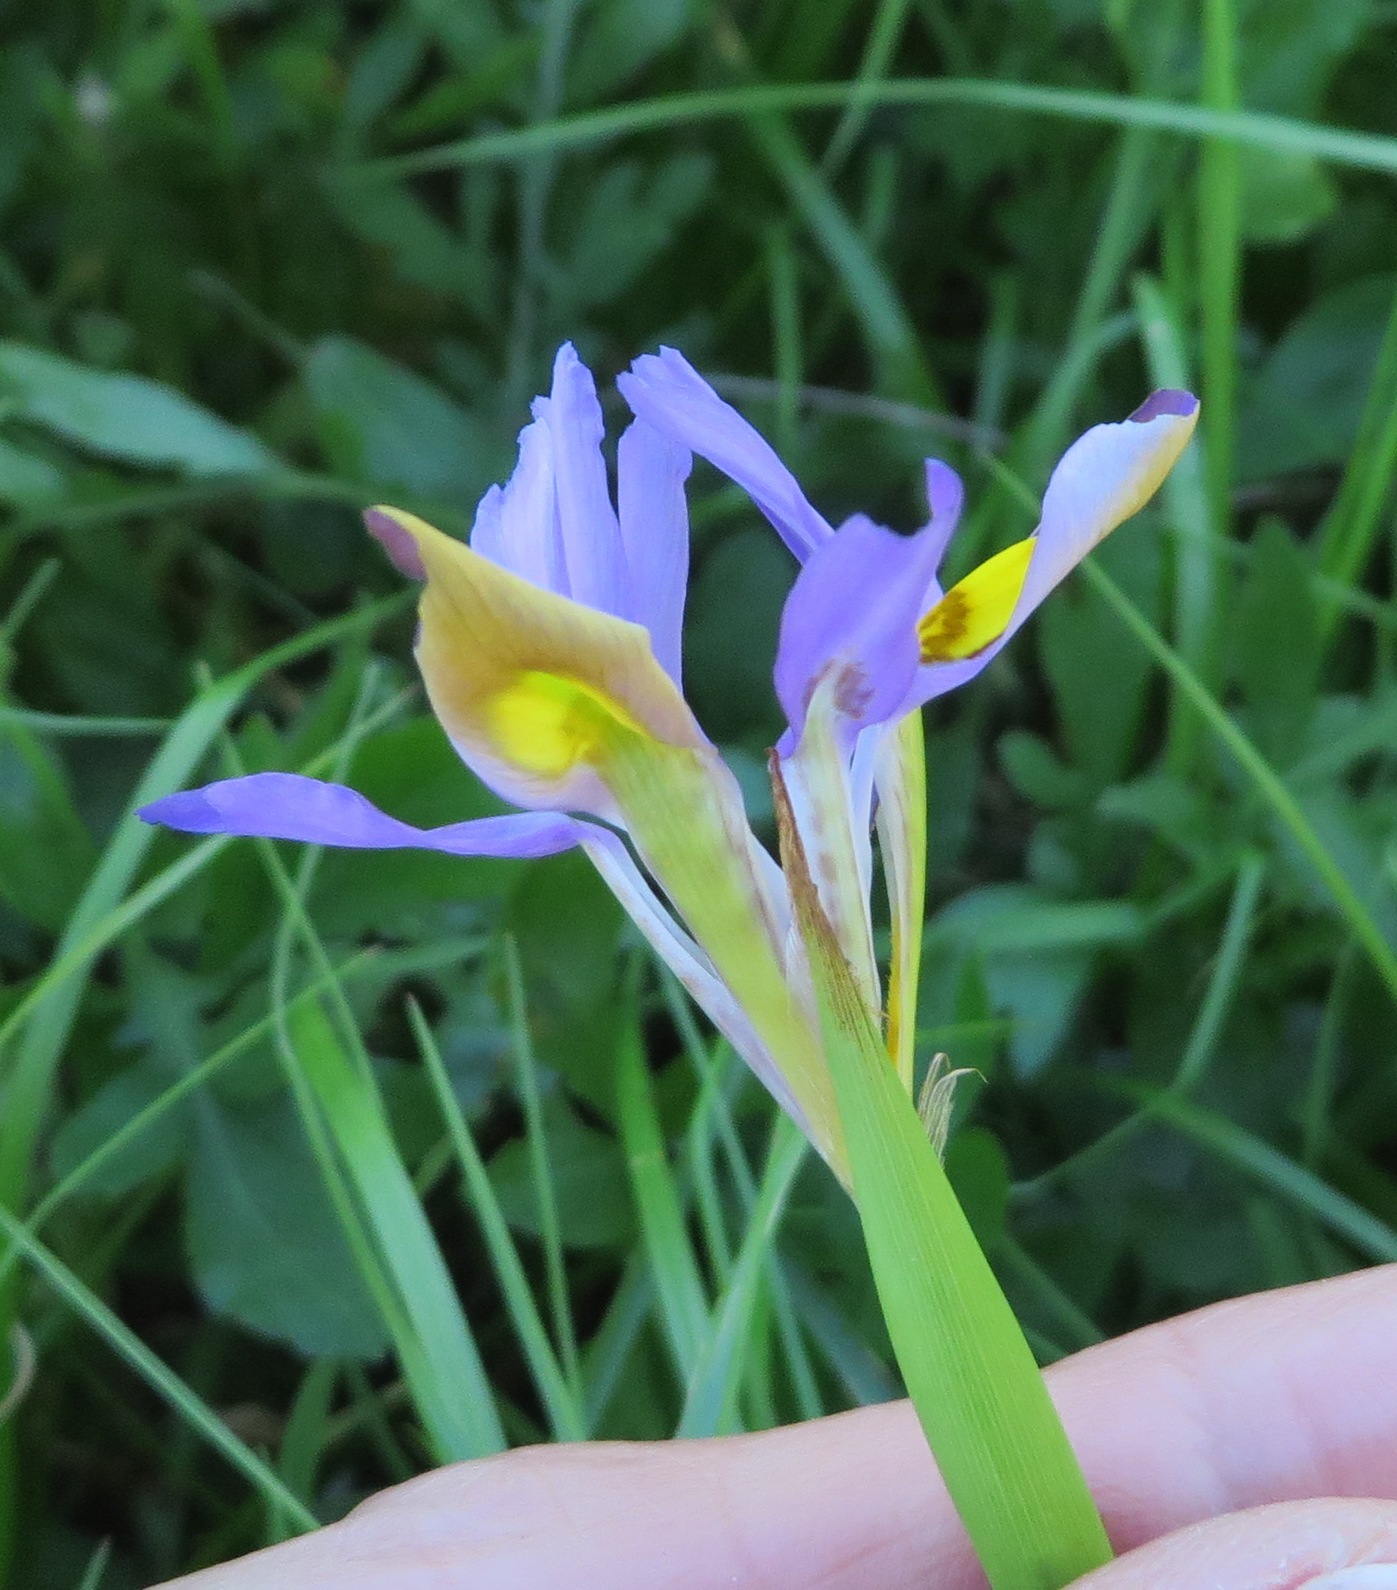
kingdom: Plantae
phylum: Tracheophyta
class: Liliopsida
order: Asparagales
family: Iridaceae
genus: Moraea
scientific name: Moraea fugax
